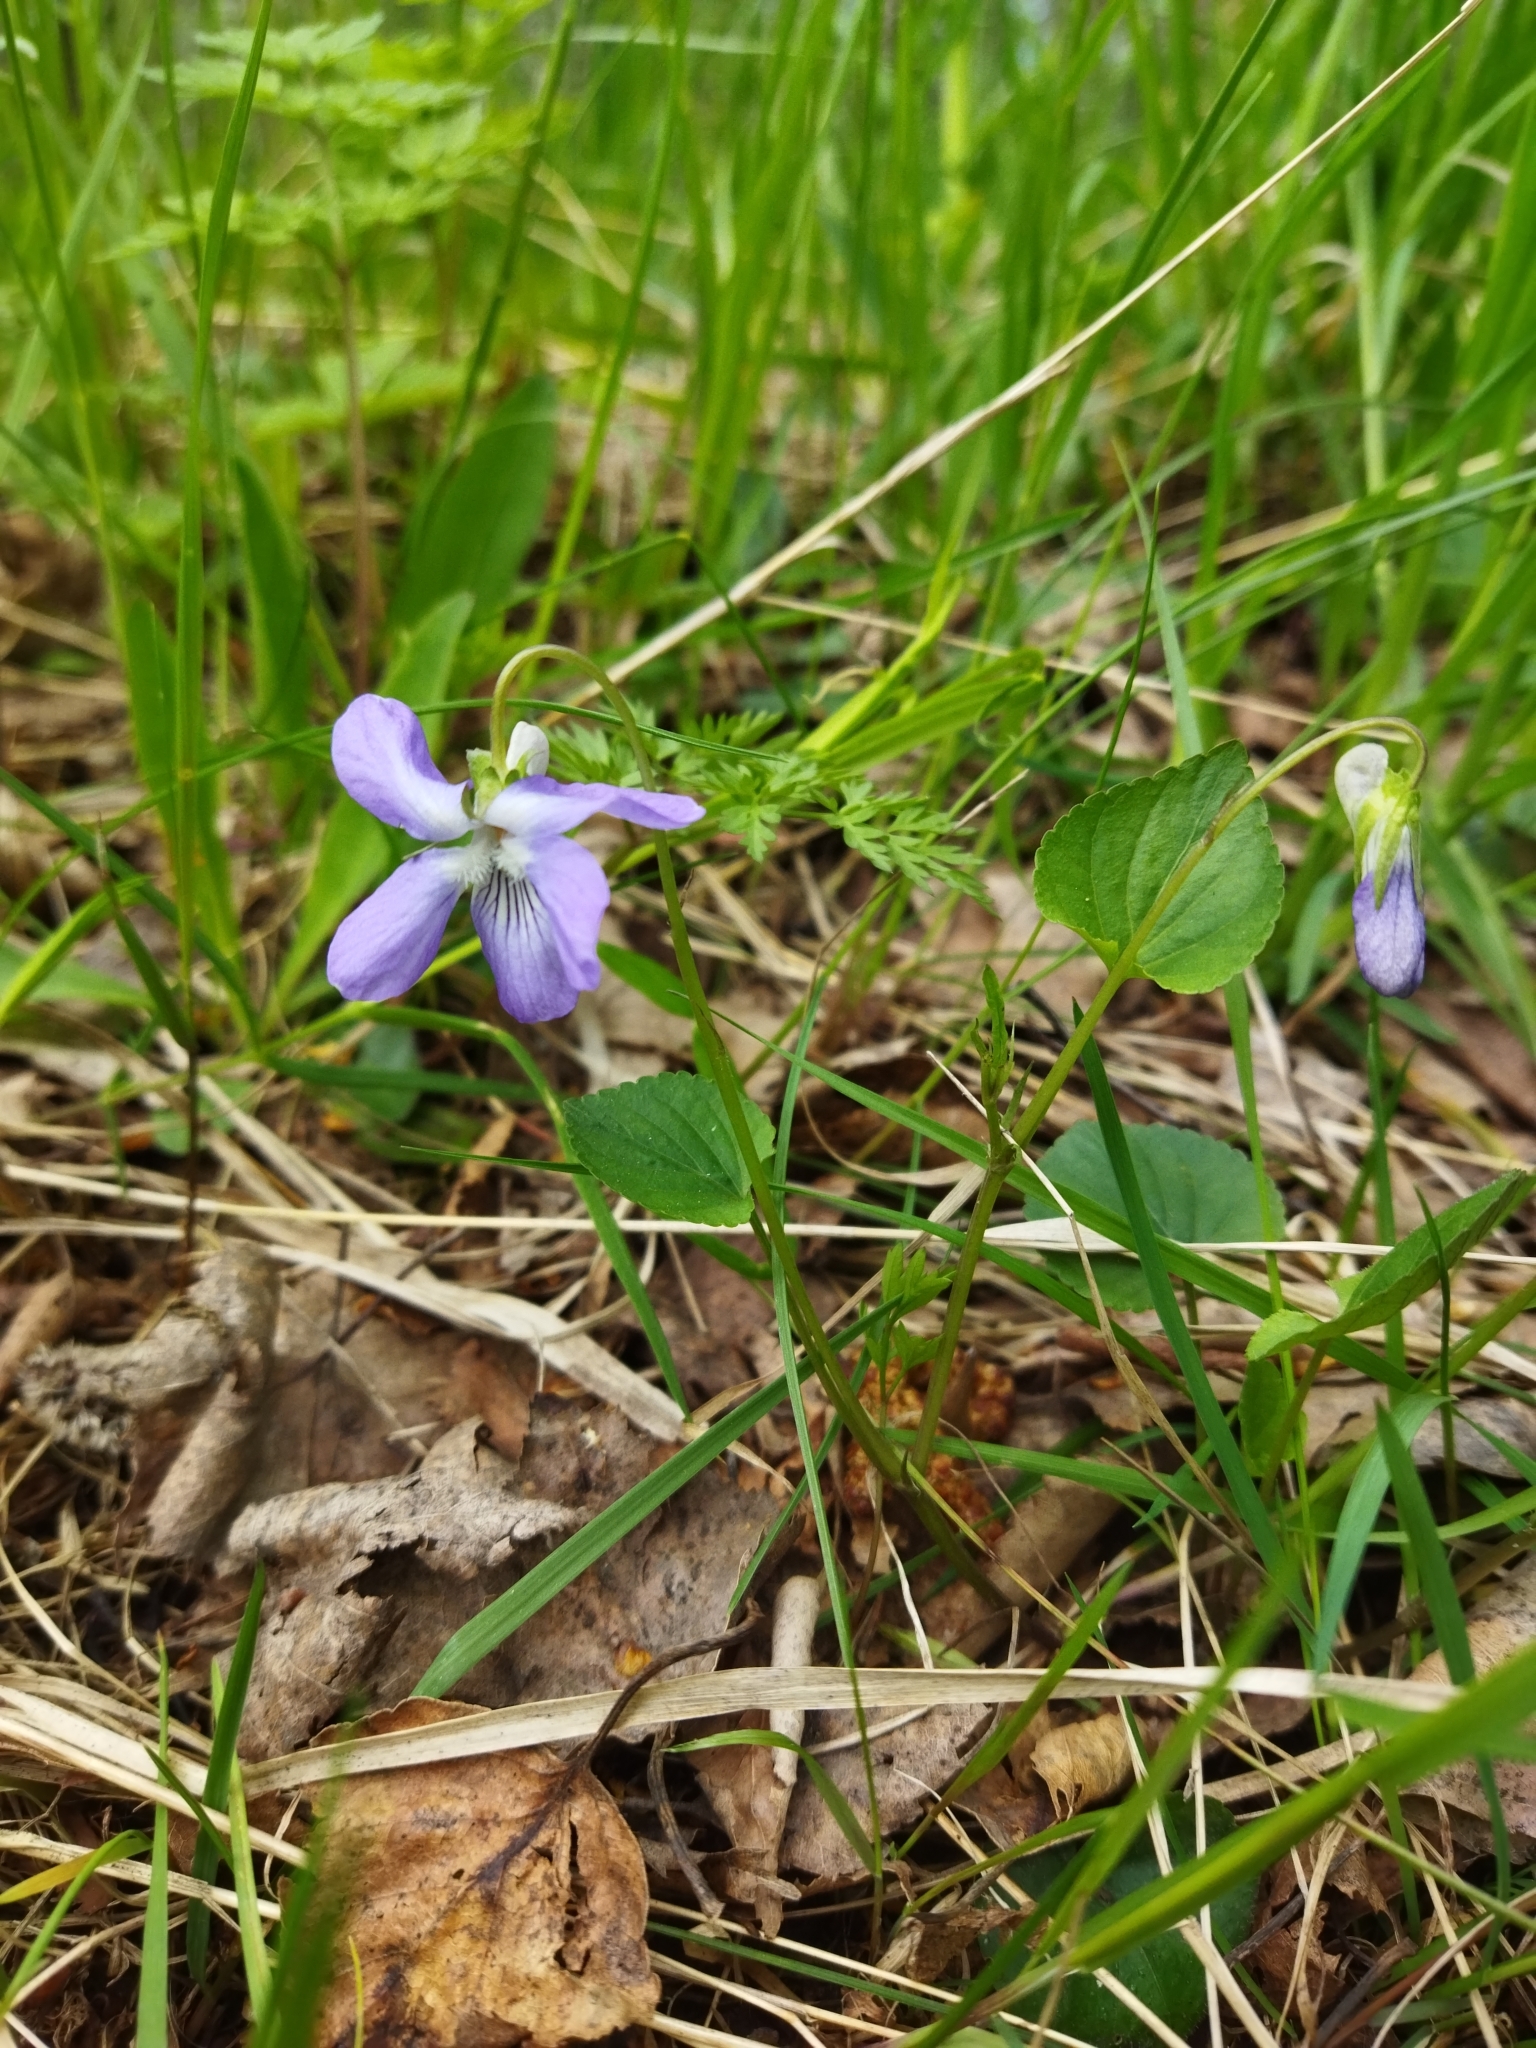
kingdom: Plantae
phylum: Tracheophyta
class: Magnoliopsida
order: Malpighiales
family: Violaceae
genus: Viola
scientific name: Viola riviniana
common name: Common dog-violet
